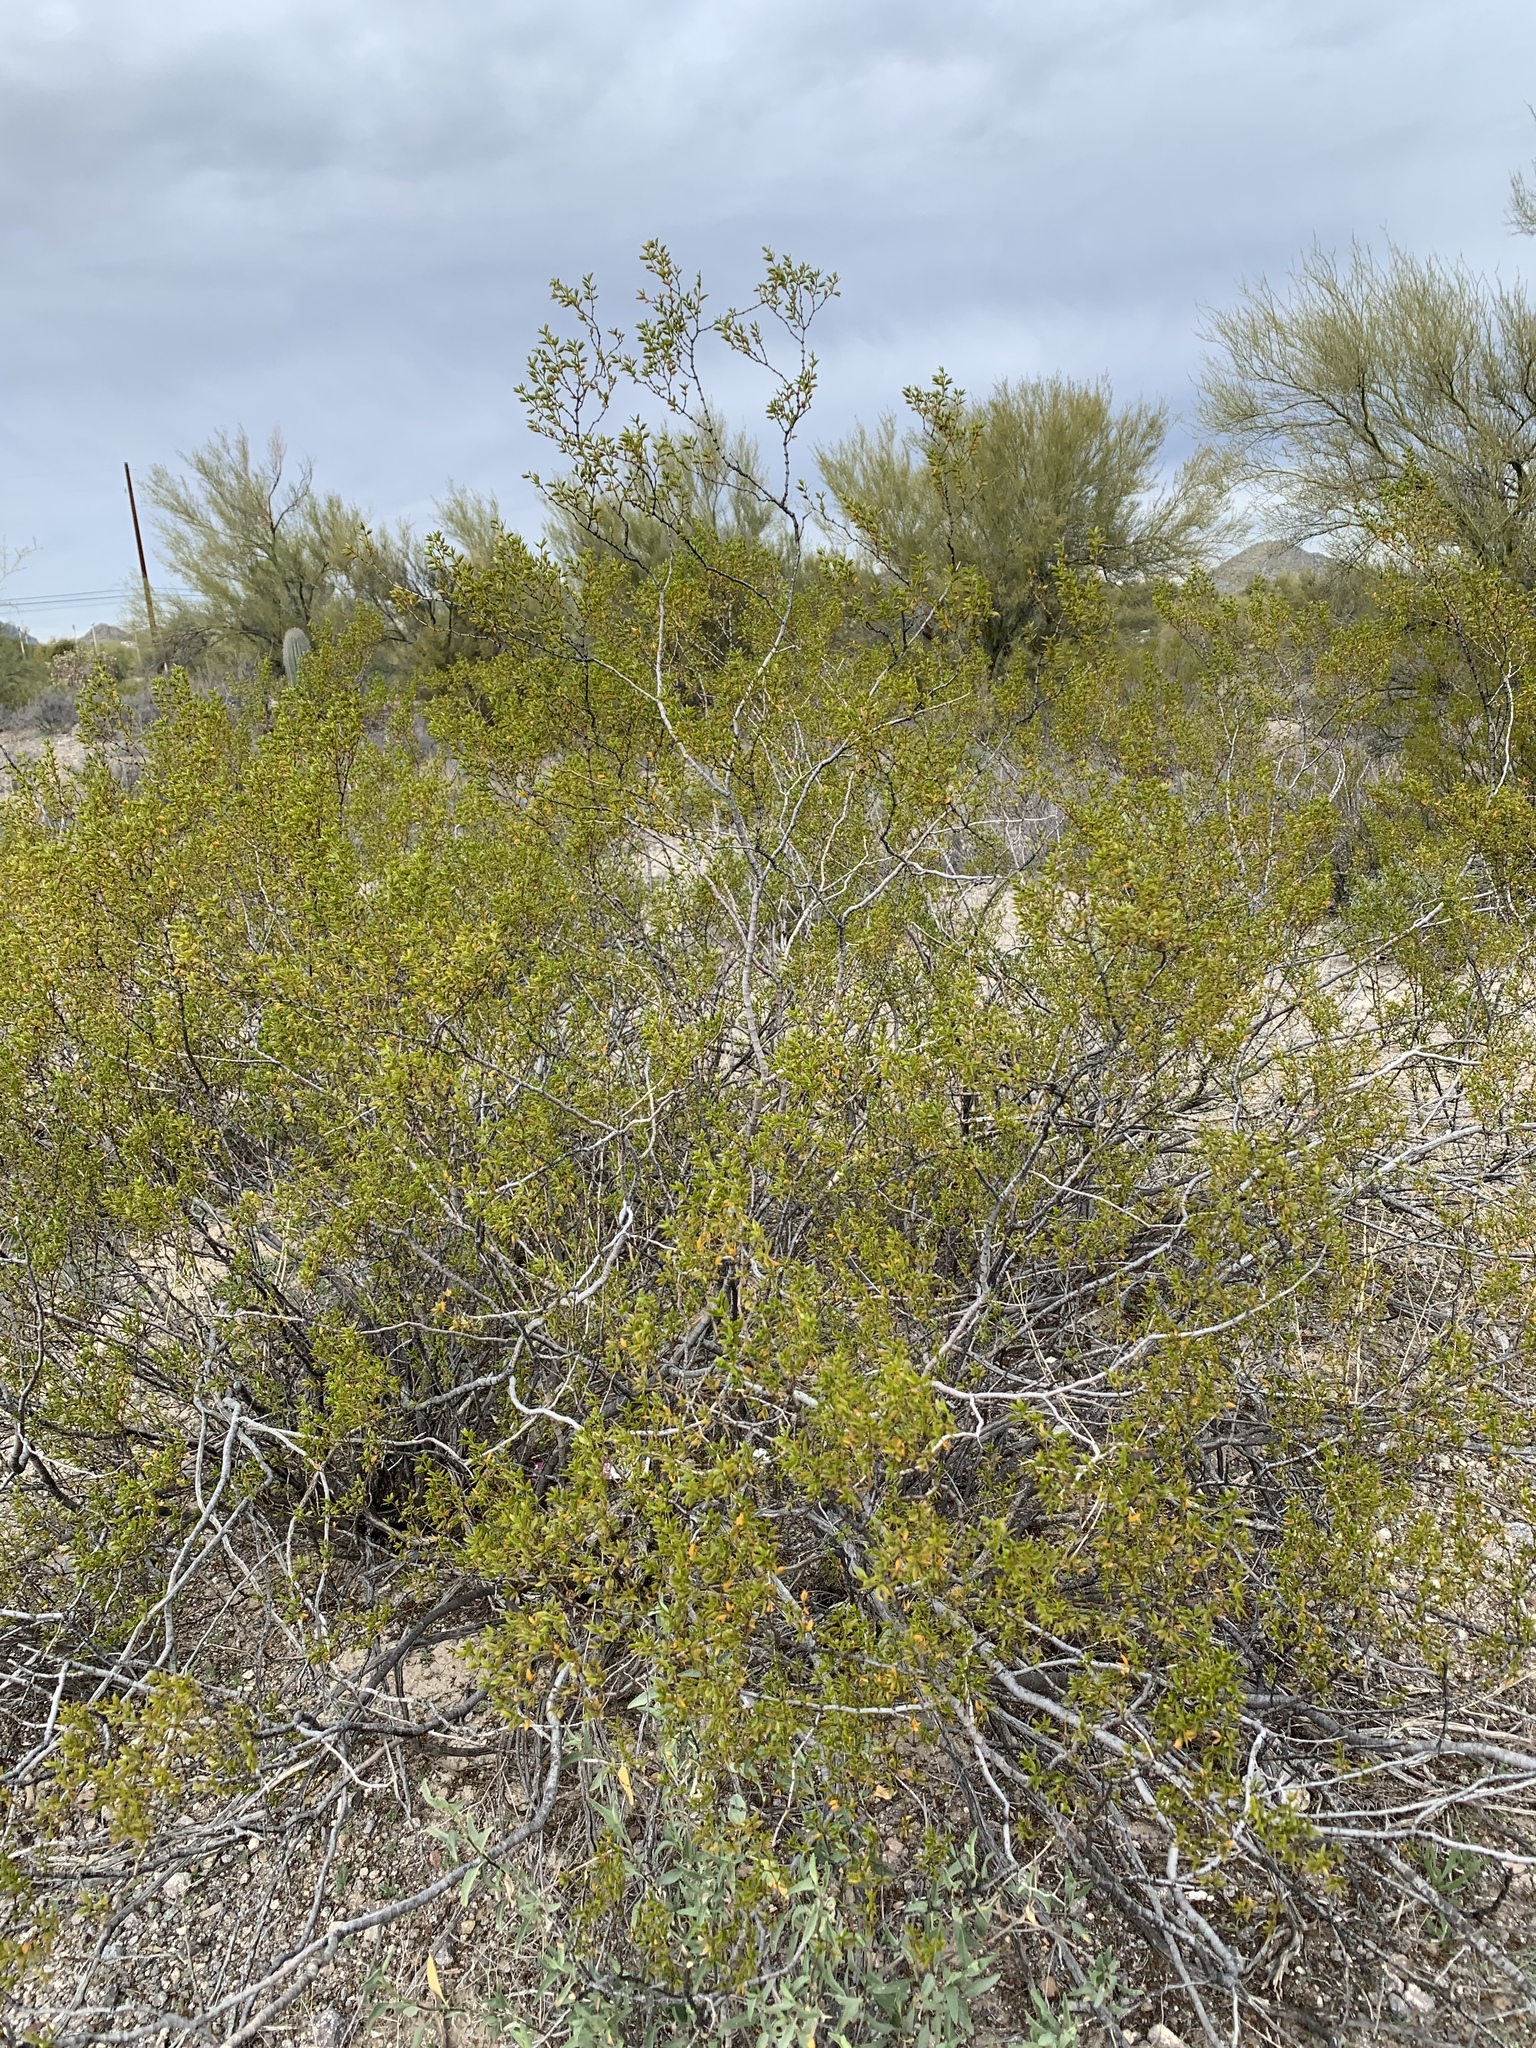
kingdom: Plantae
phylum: Tracheophyta
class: Magnoliopsida
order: Zygophyllales
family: Zygophyllaceae
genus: Larrea
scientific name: Larrea tridentata
